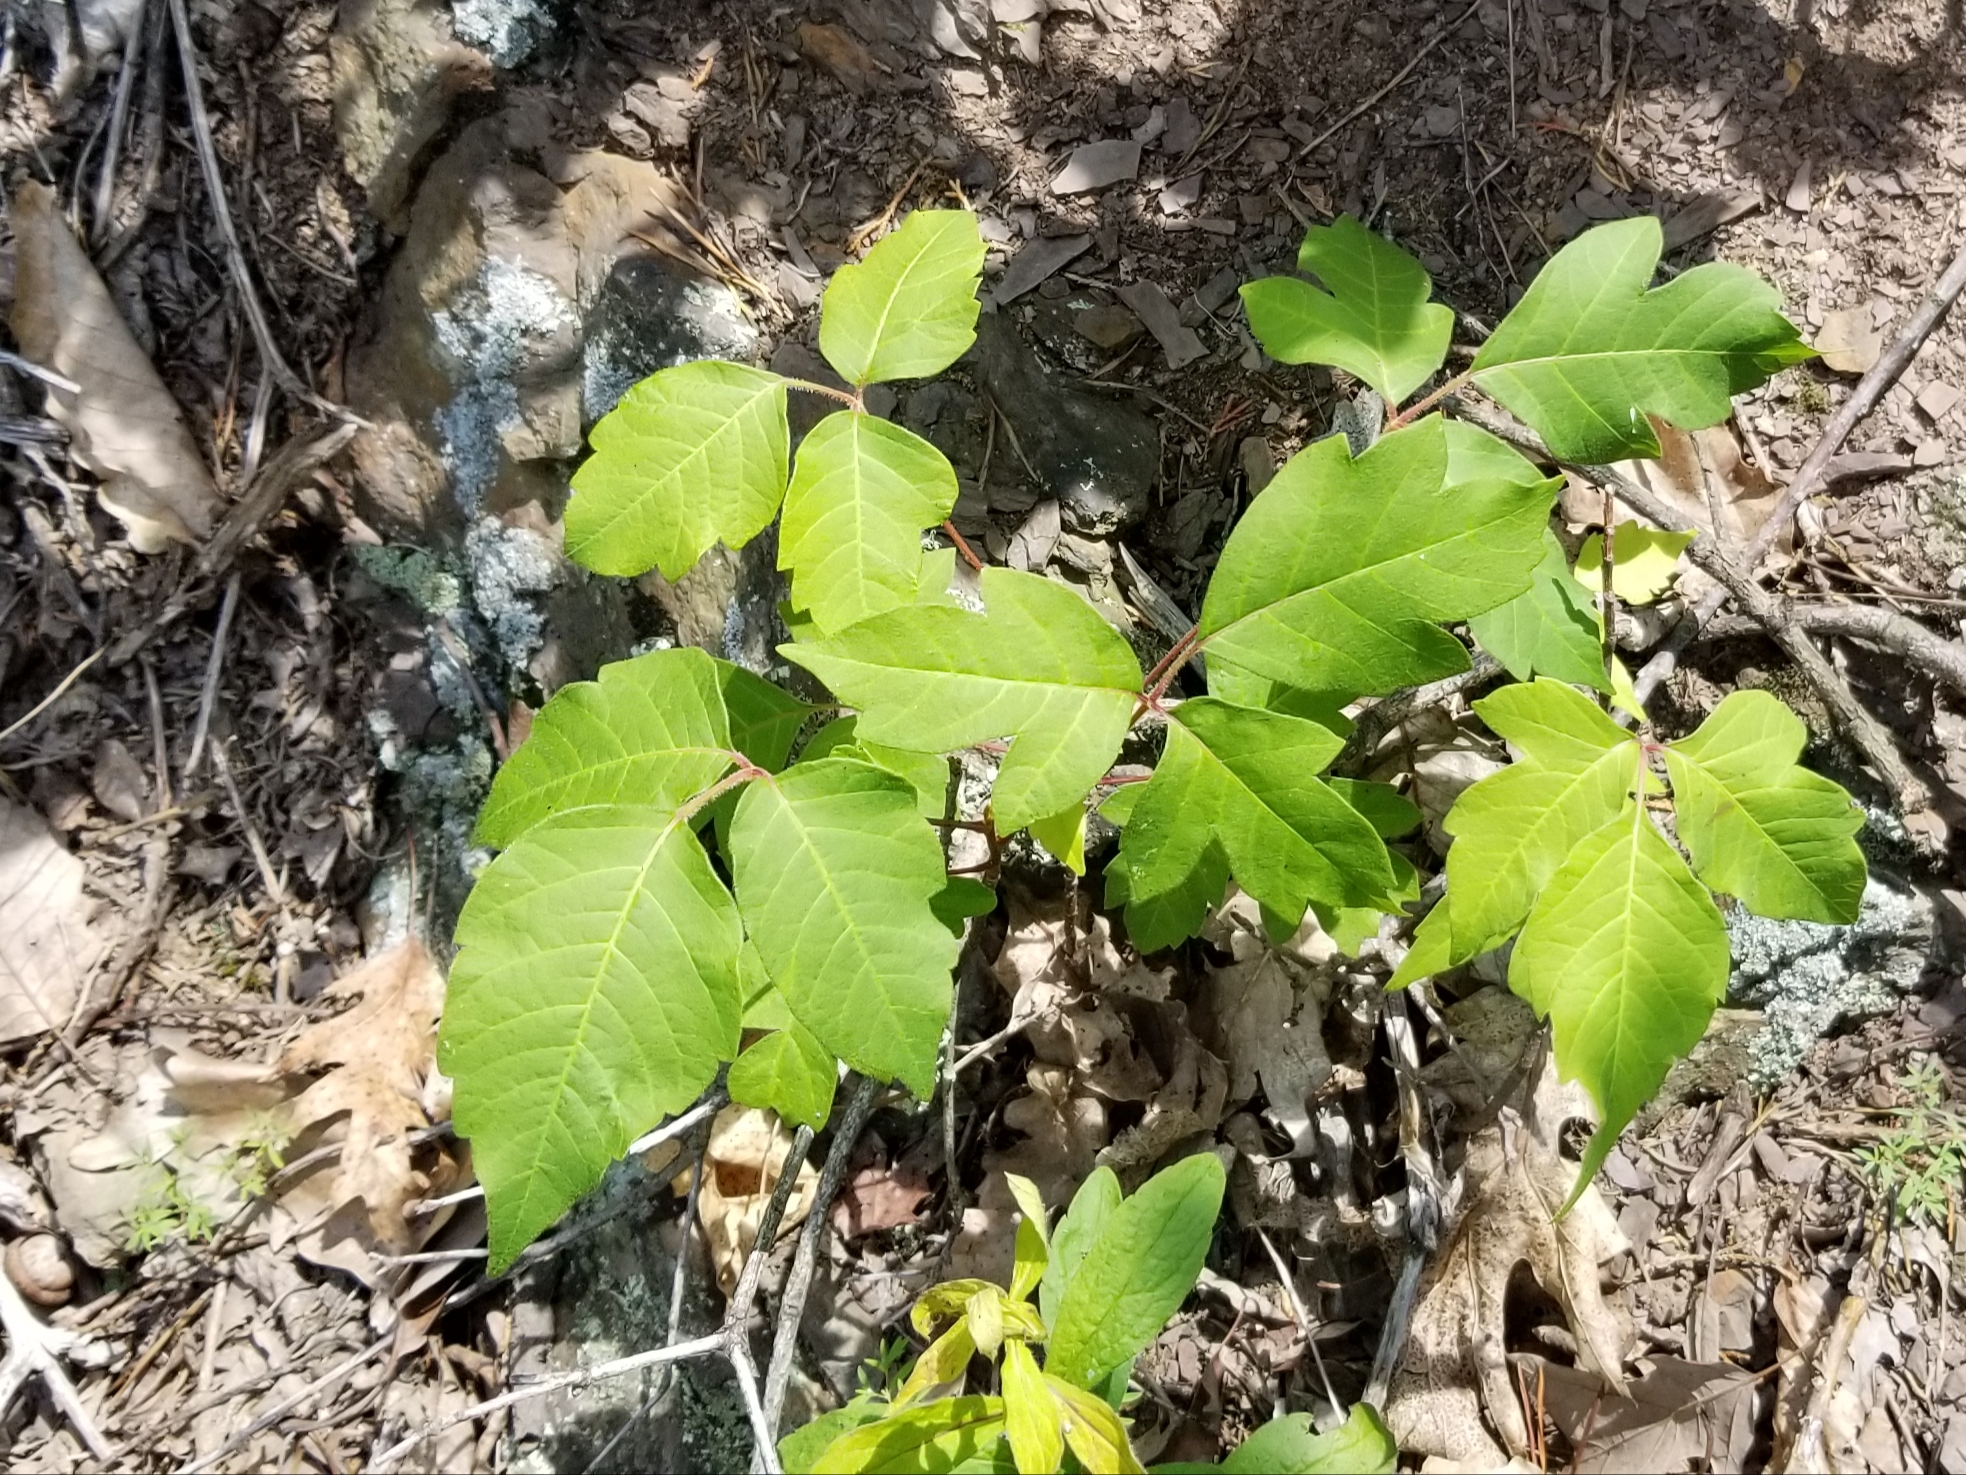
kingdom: Plantae
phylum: Tracheophyta
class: Magnoliopsida
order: Sapindales
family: Anacardiaceae
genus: Toxicodendron
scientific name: Toxicodendron radicans
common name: Poison ivy
